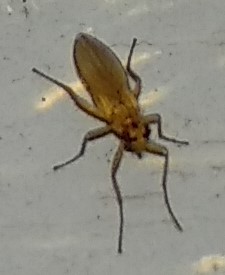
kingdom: Animalia
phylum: Arthropoda
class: Insecta
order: Diptera
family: Lonchopteridae
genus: Lonchoptera
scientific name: Lonchoptera bifurcata
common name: Spear-winged fly
